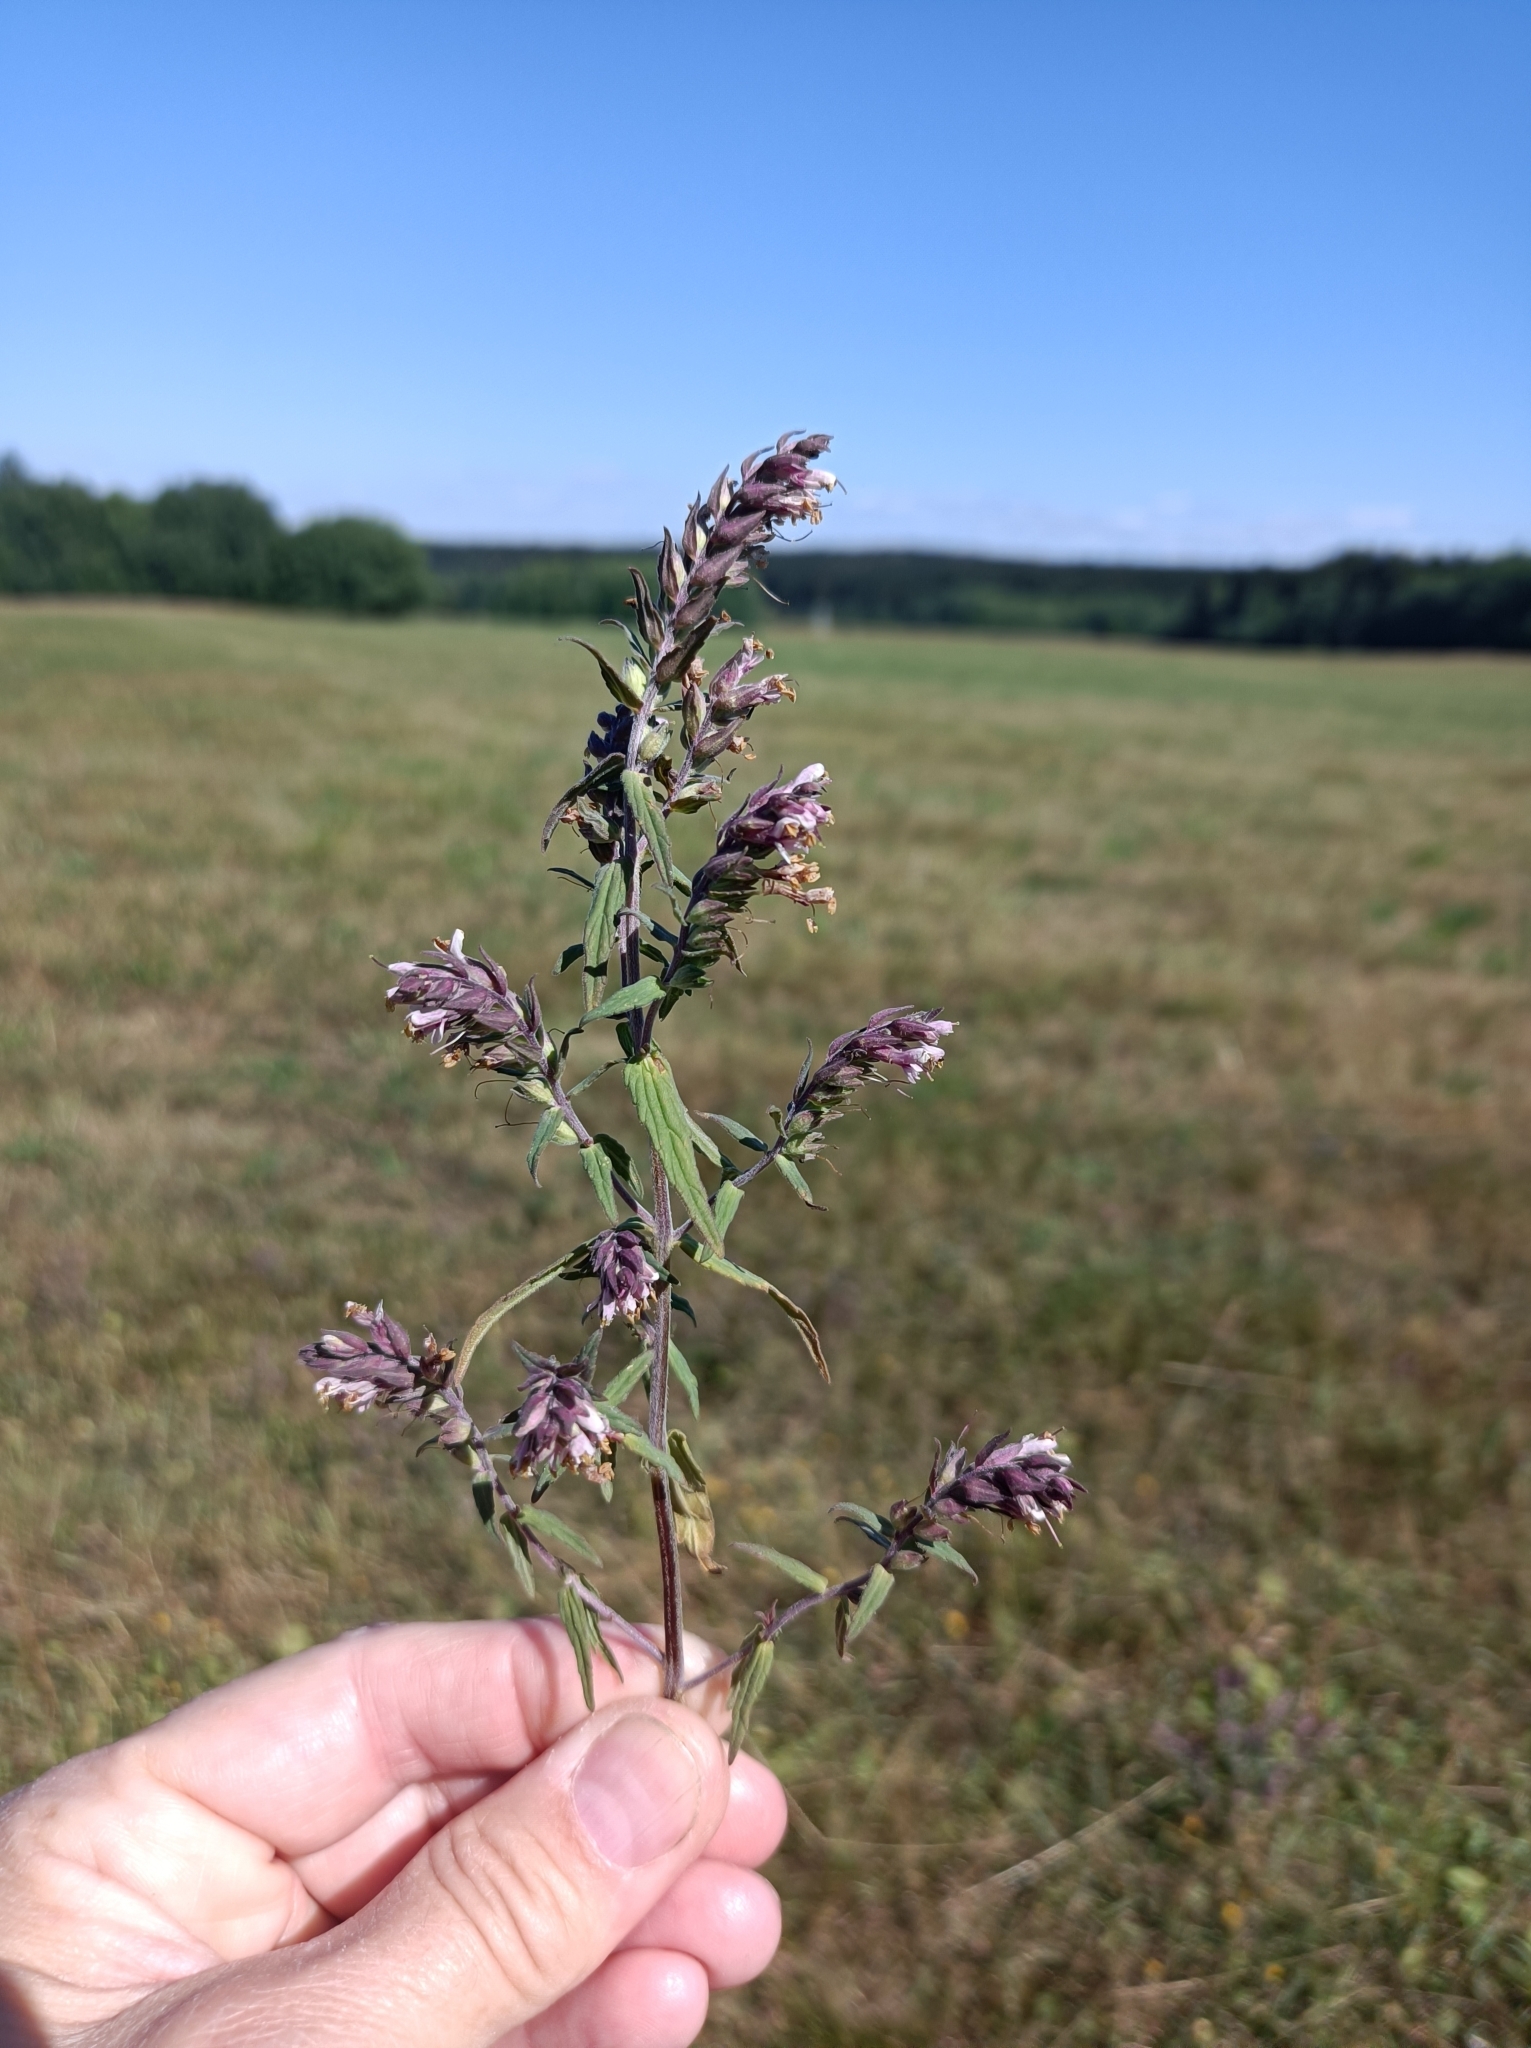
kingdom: Plantae
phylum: Tracheophyta
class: Magnoliopsida
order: Lamiales
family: Orobanchaceae
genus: Odontites
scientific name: Odontites vulgaris
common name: Broomrape
